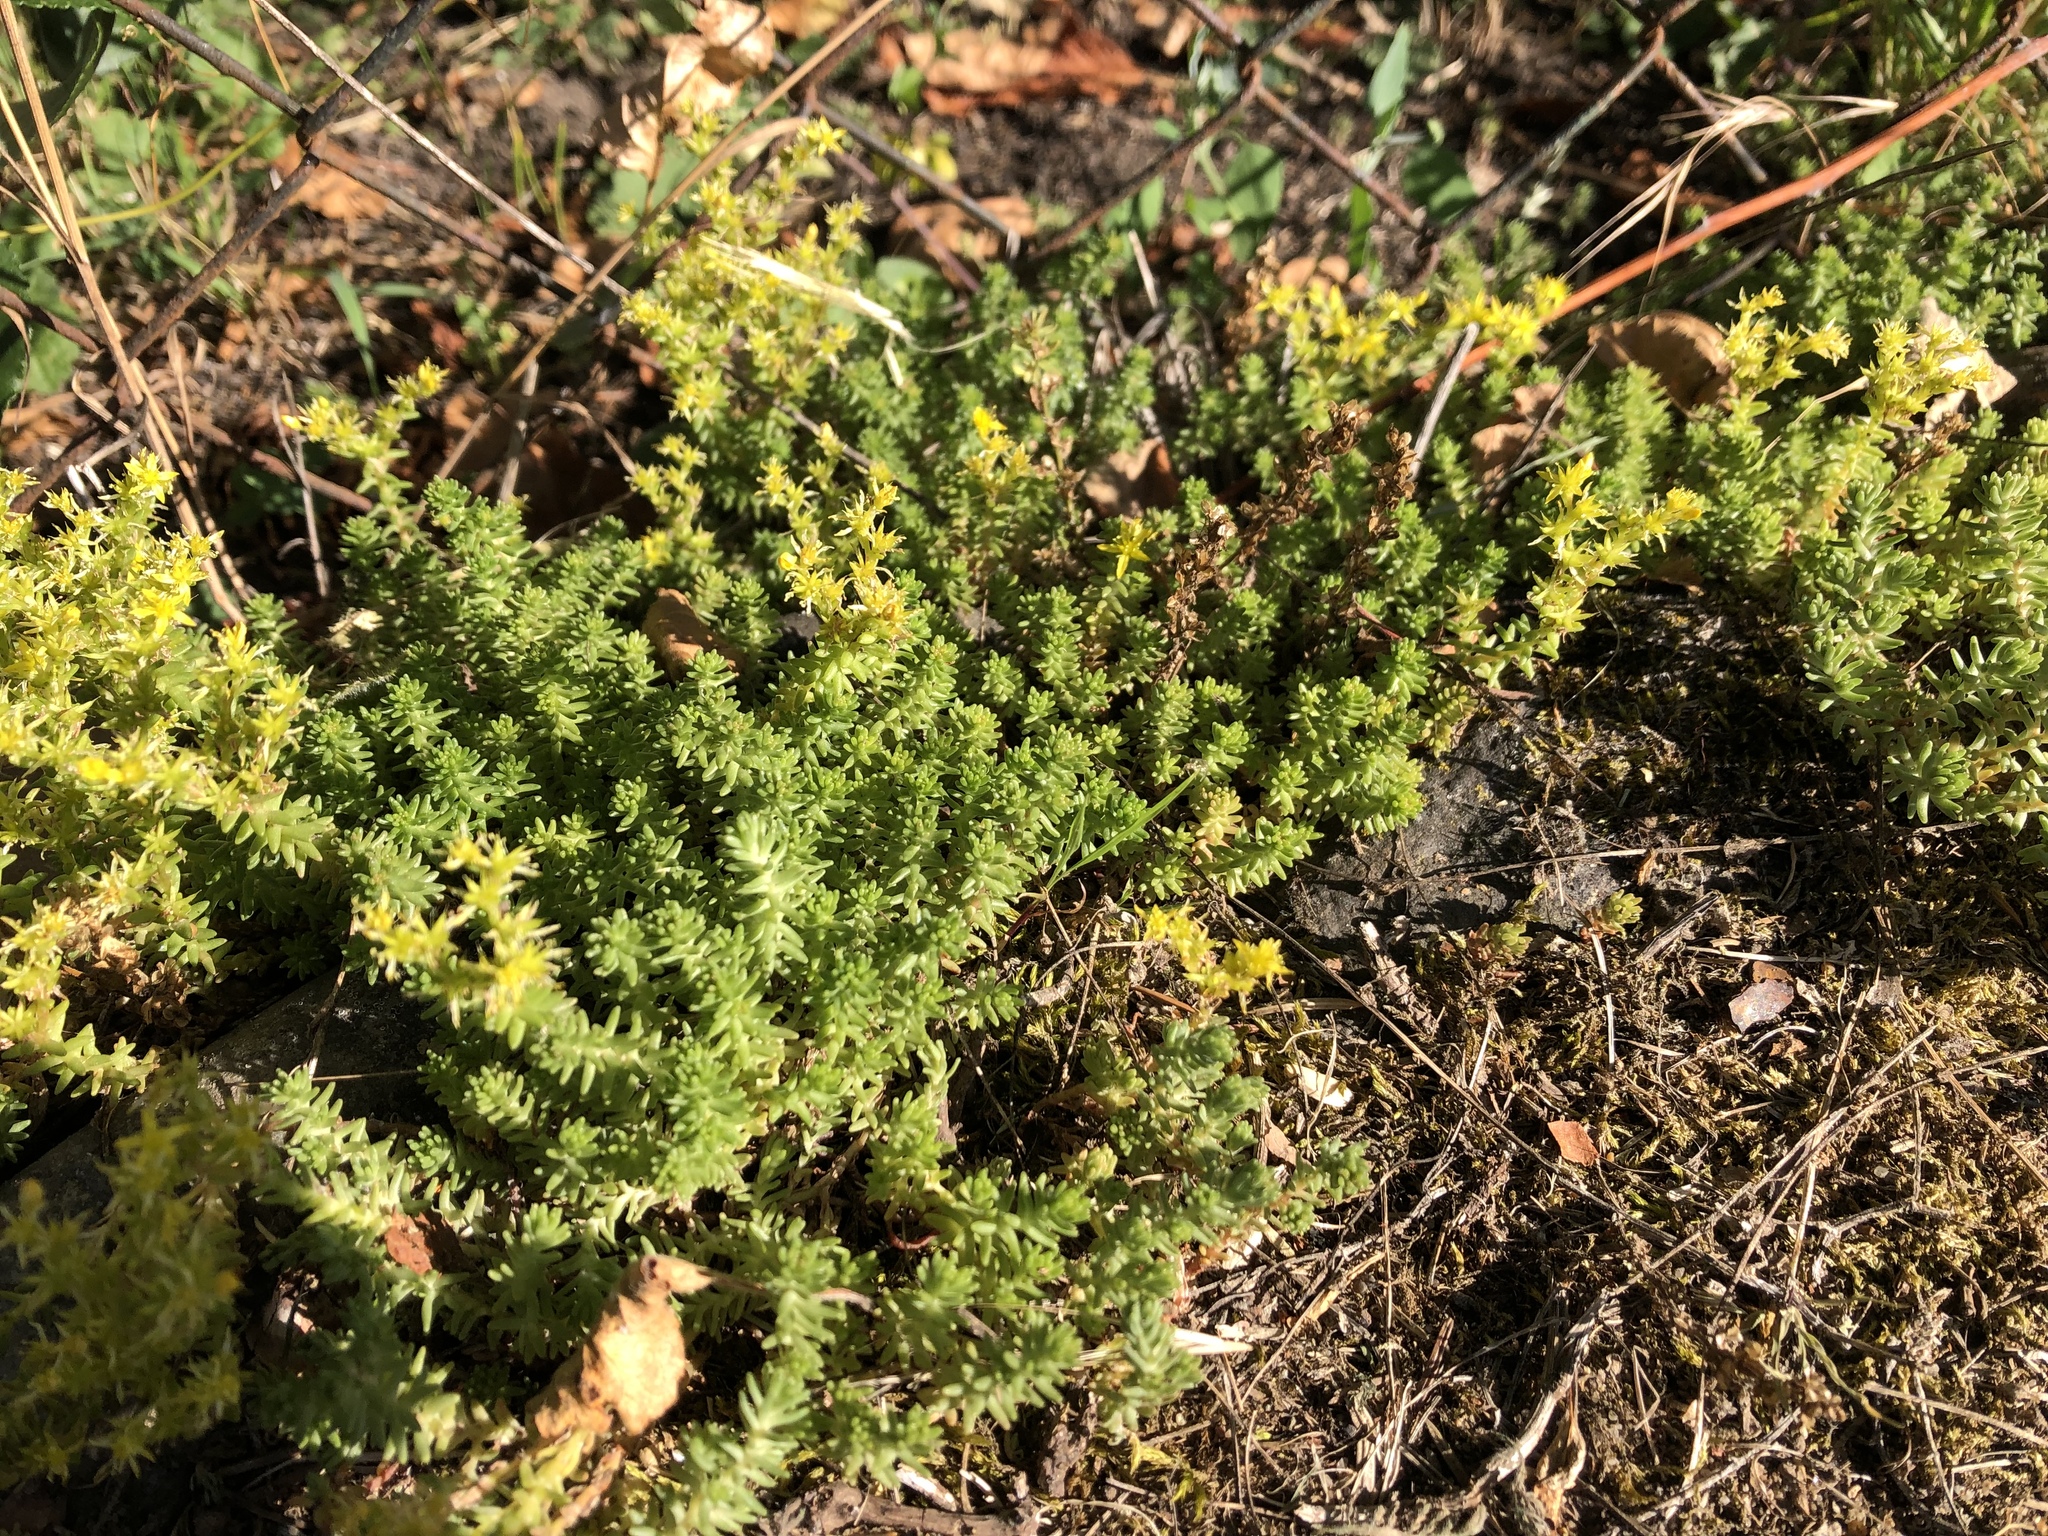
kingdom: Plantae
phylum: Tracheophyta
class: Magnoliopsida
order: Saxifragales
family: Crassulaceae
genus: Sedum
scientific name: Sedum sexangulare
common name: Tasteless stonecrop
